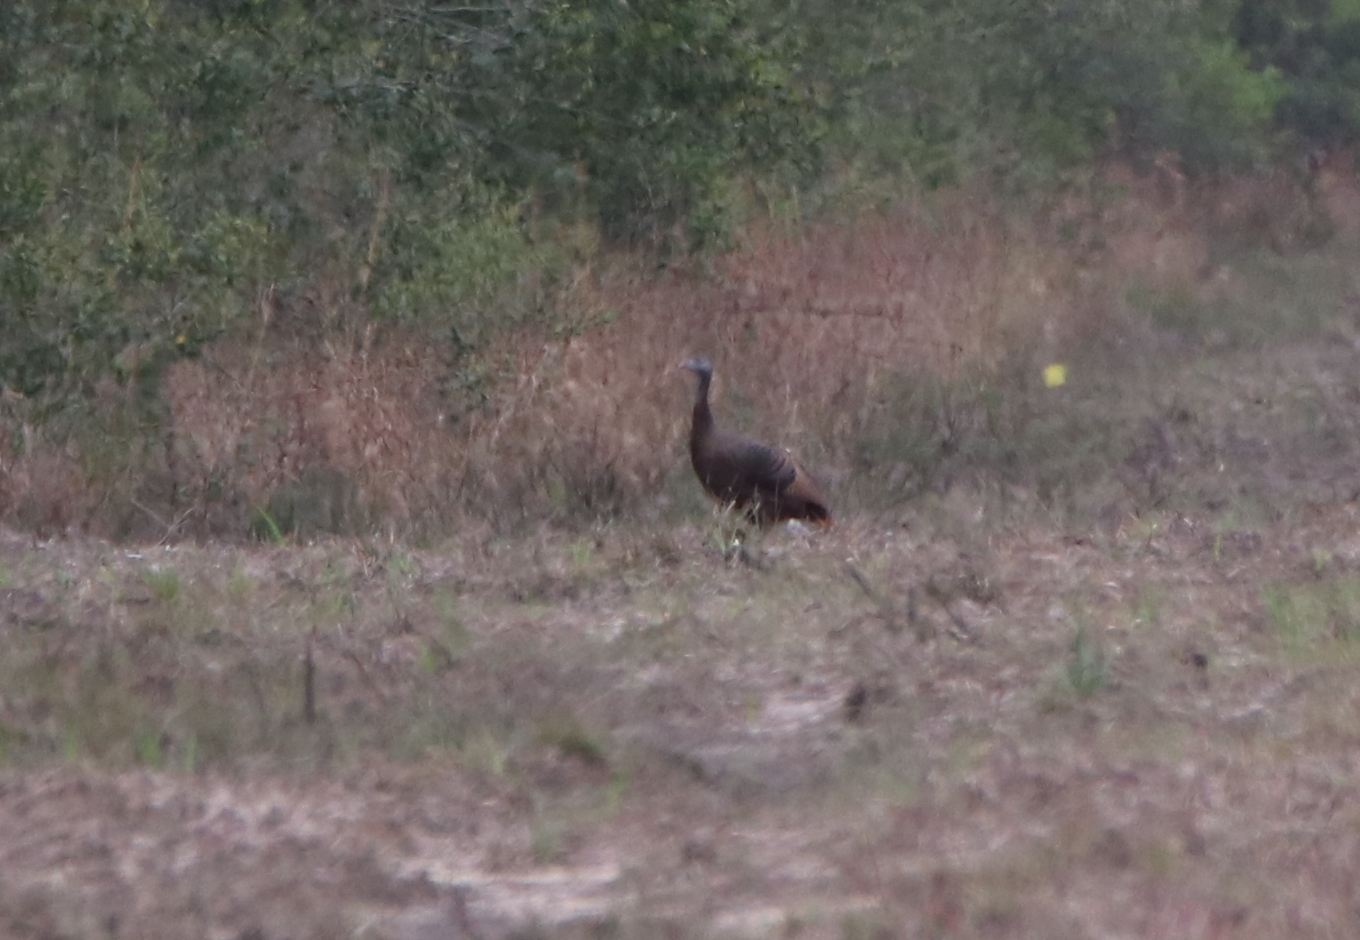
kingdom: Animalia
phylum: Chordata
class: Aves
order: Galliformes
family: Phasianidae
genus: Meleagris
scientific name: Meleagris gallopavo
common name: Wild turkey
